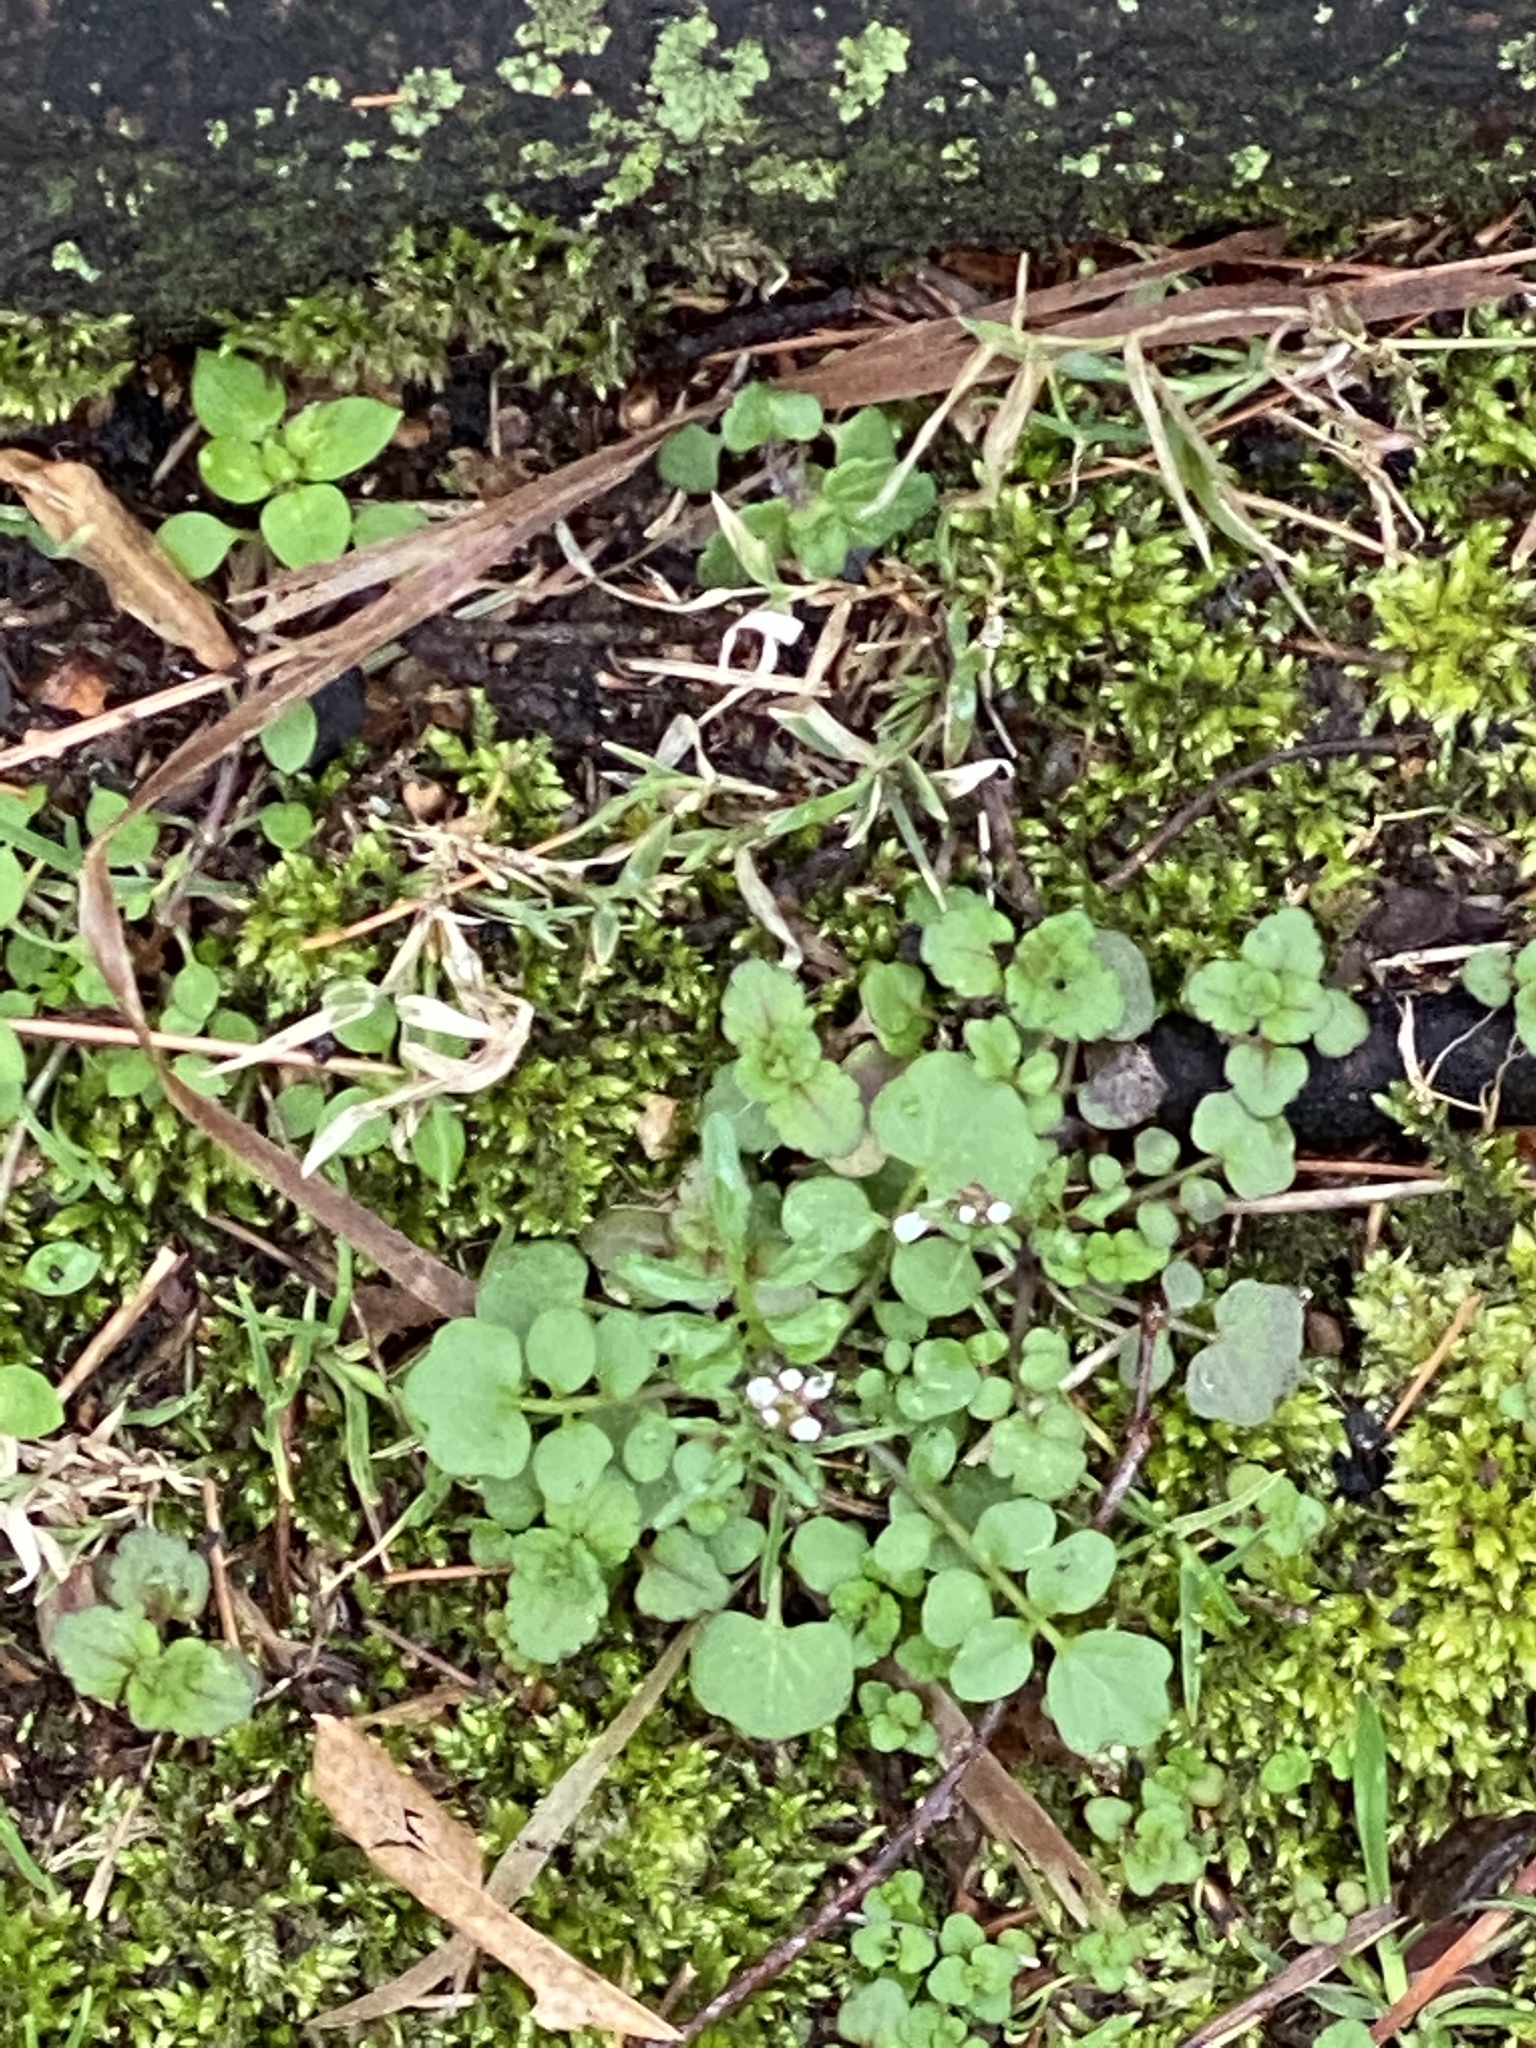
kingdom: Plantae
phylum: Tracheophyta
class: Magnoliopsida
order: Brassicales
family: Brassicaceae
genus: Cardamine
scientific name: Cardamine hirsuta
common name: Hairy bittercress
